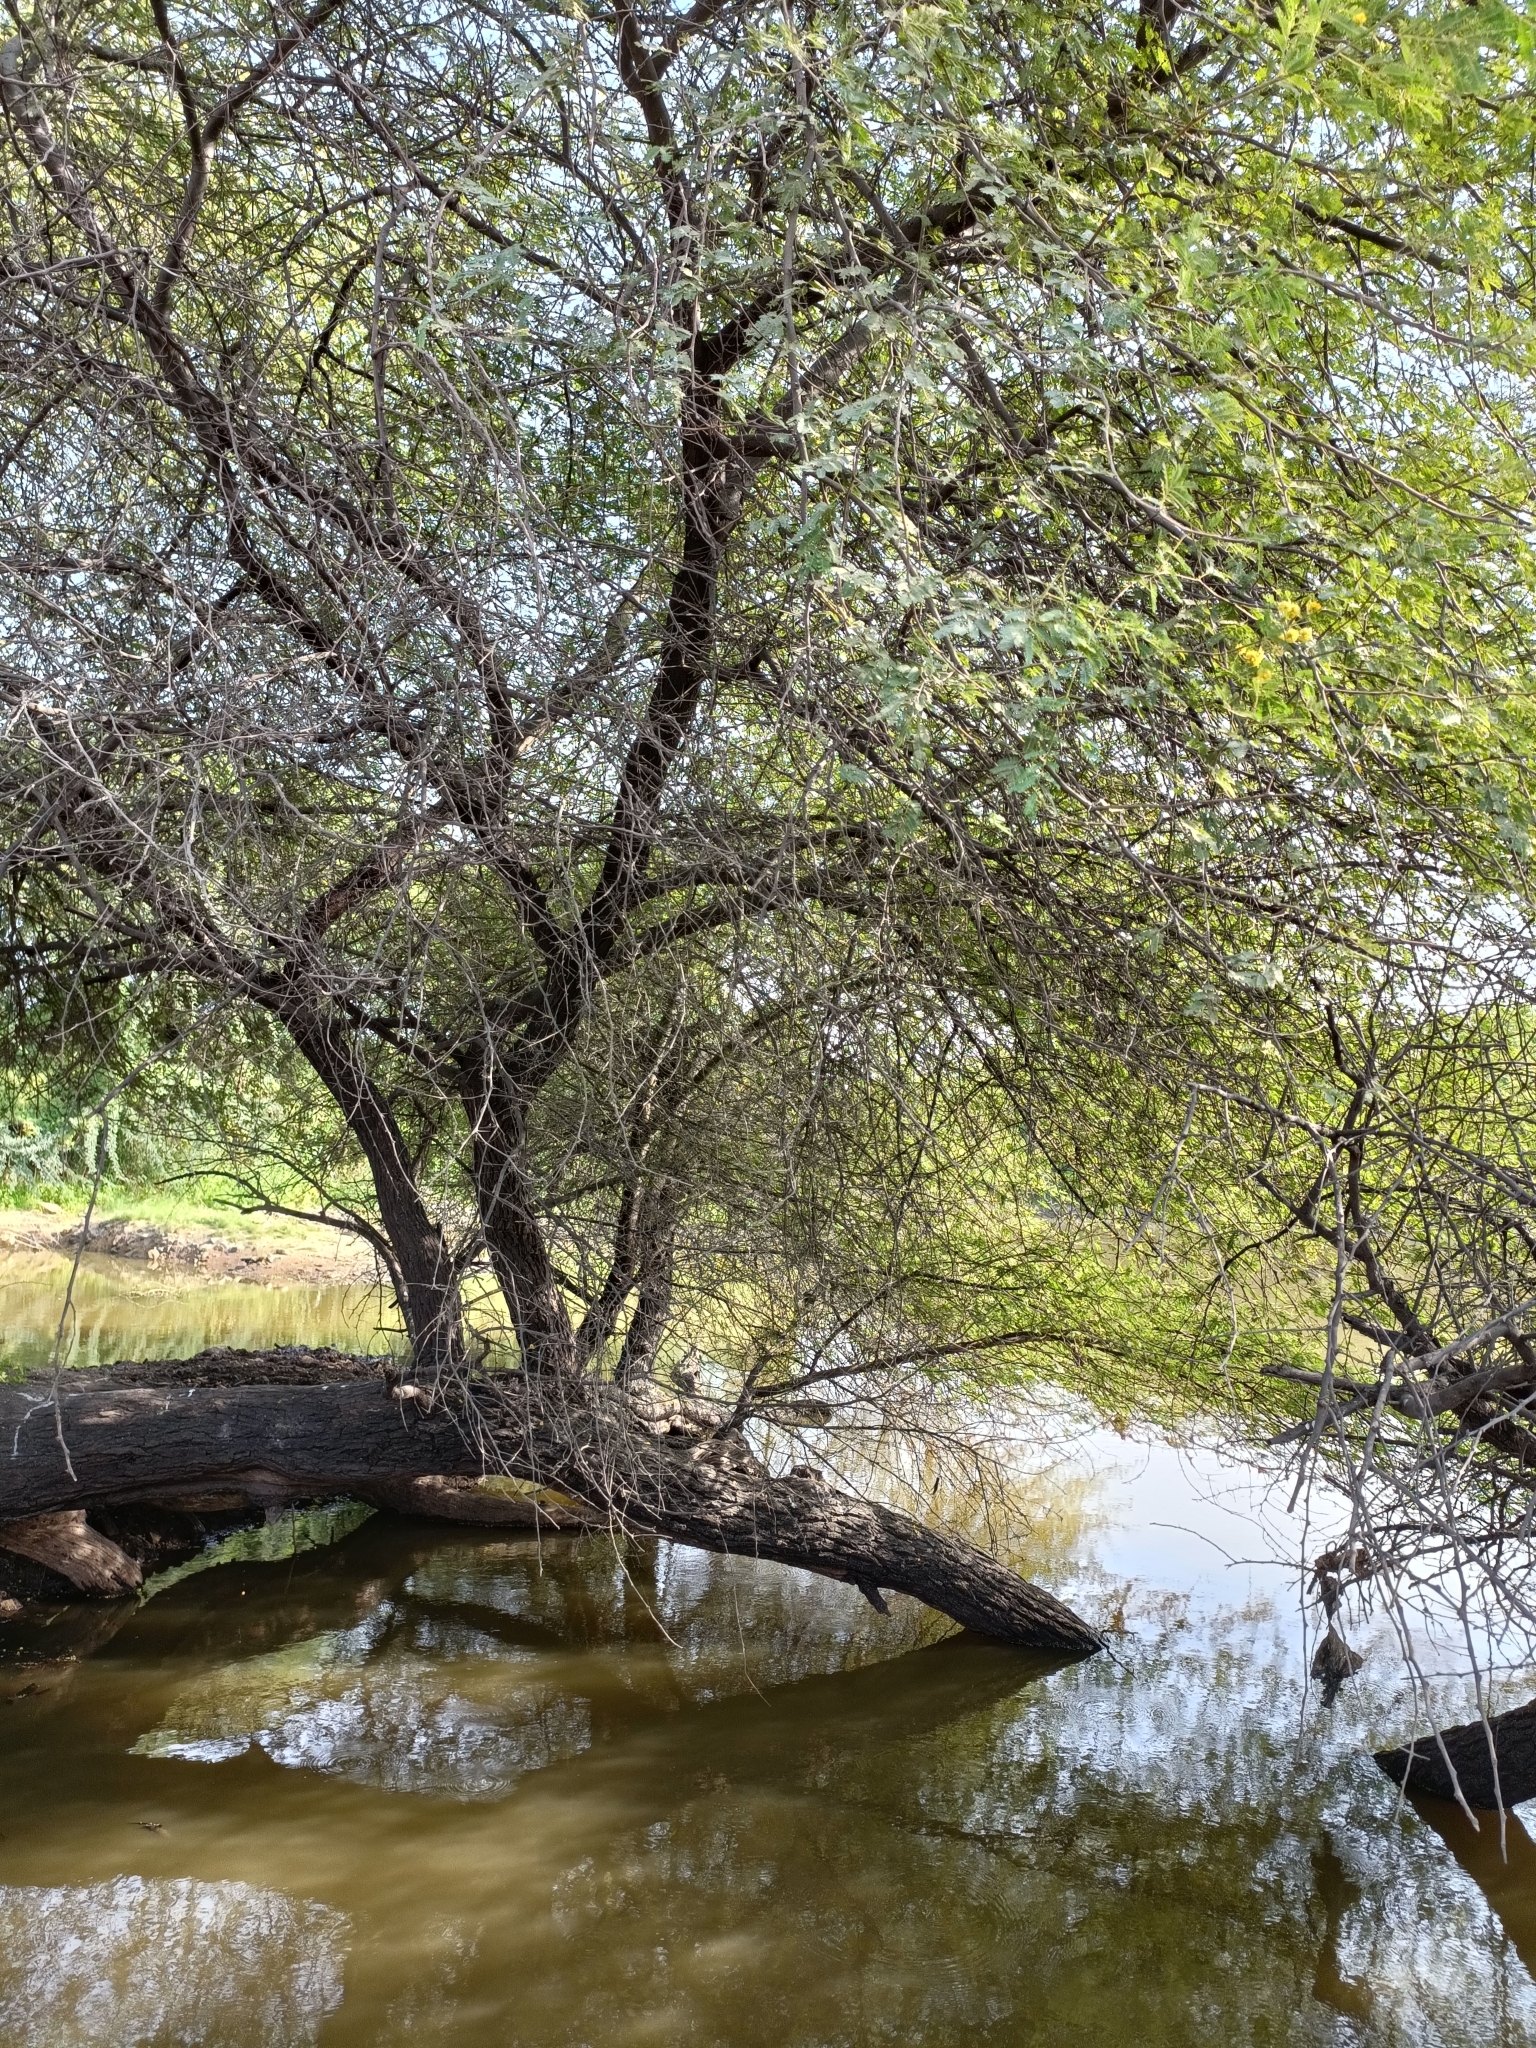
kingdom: Plantae
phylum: Tracheophyta
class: Magnoliopsida
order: Fabales
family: Fabaceae
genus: Vachellia
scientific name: Vachellia nilotica
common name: Arabic gumtree
